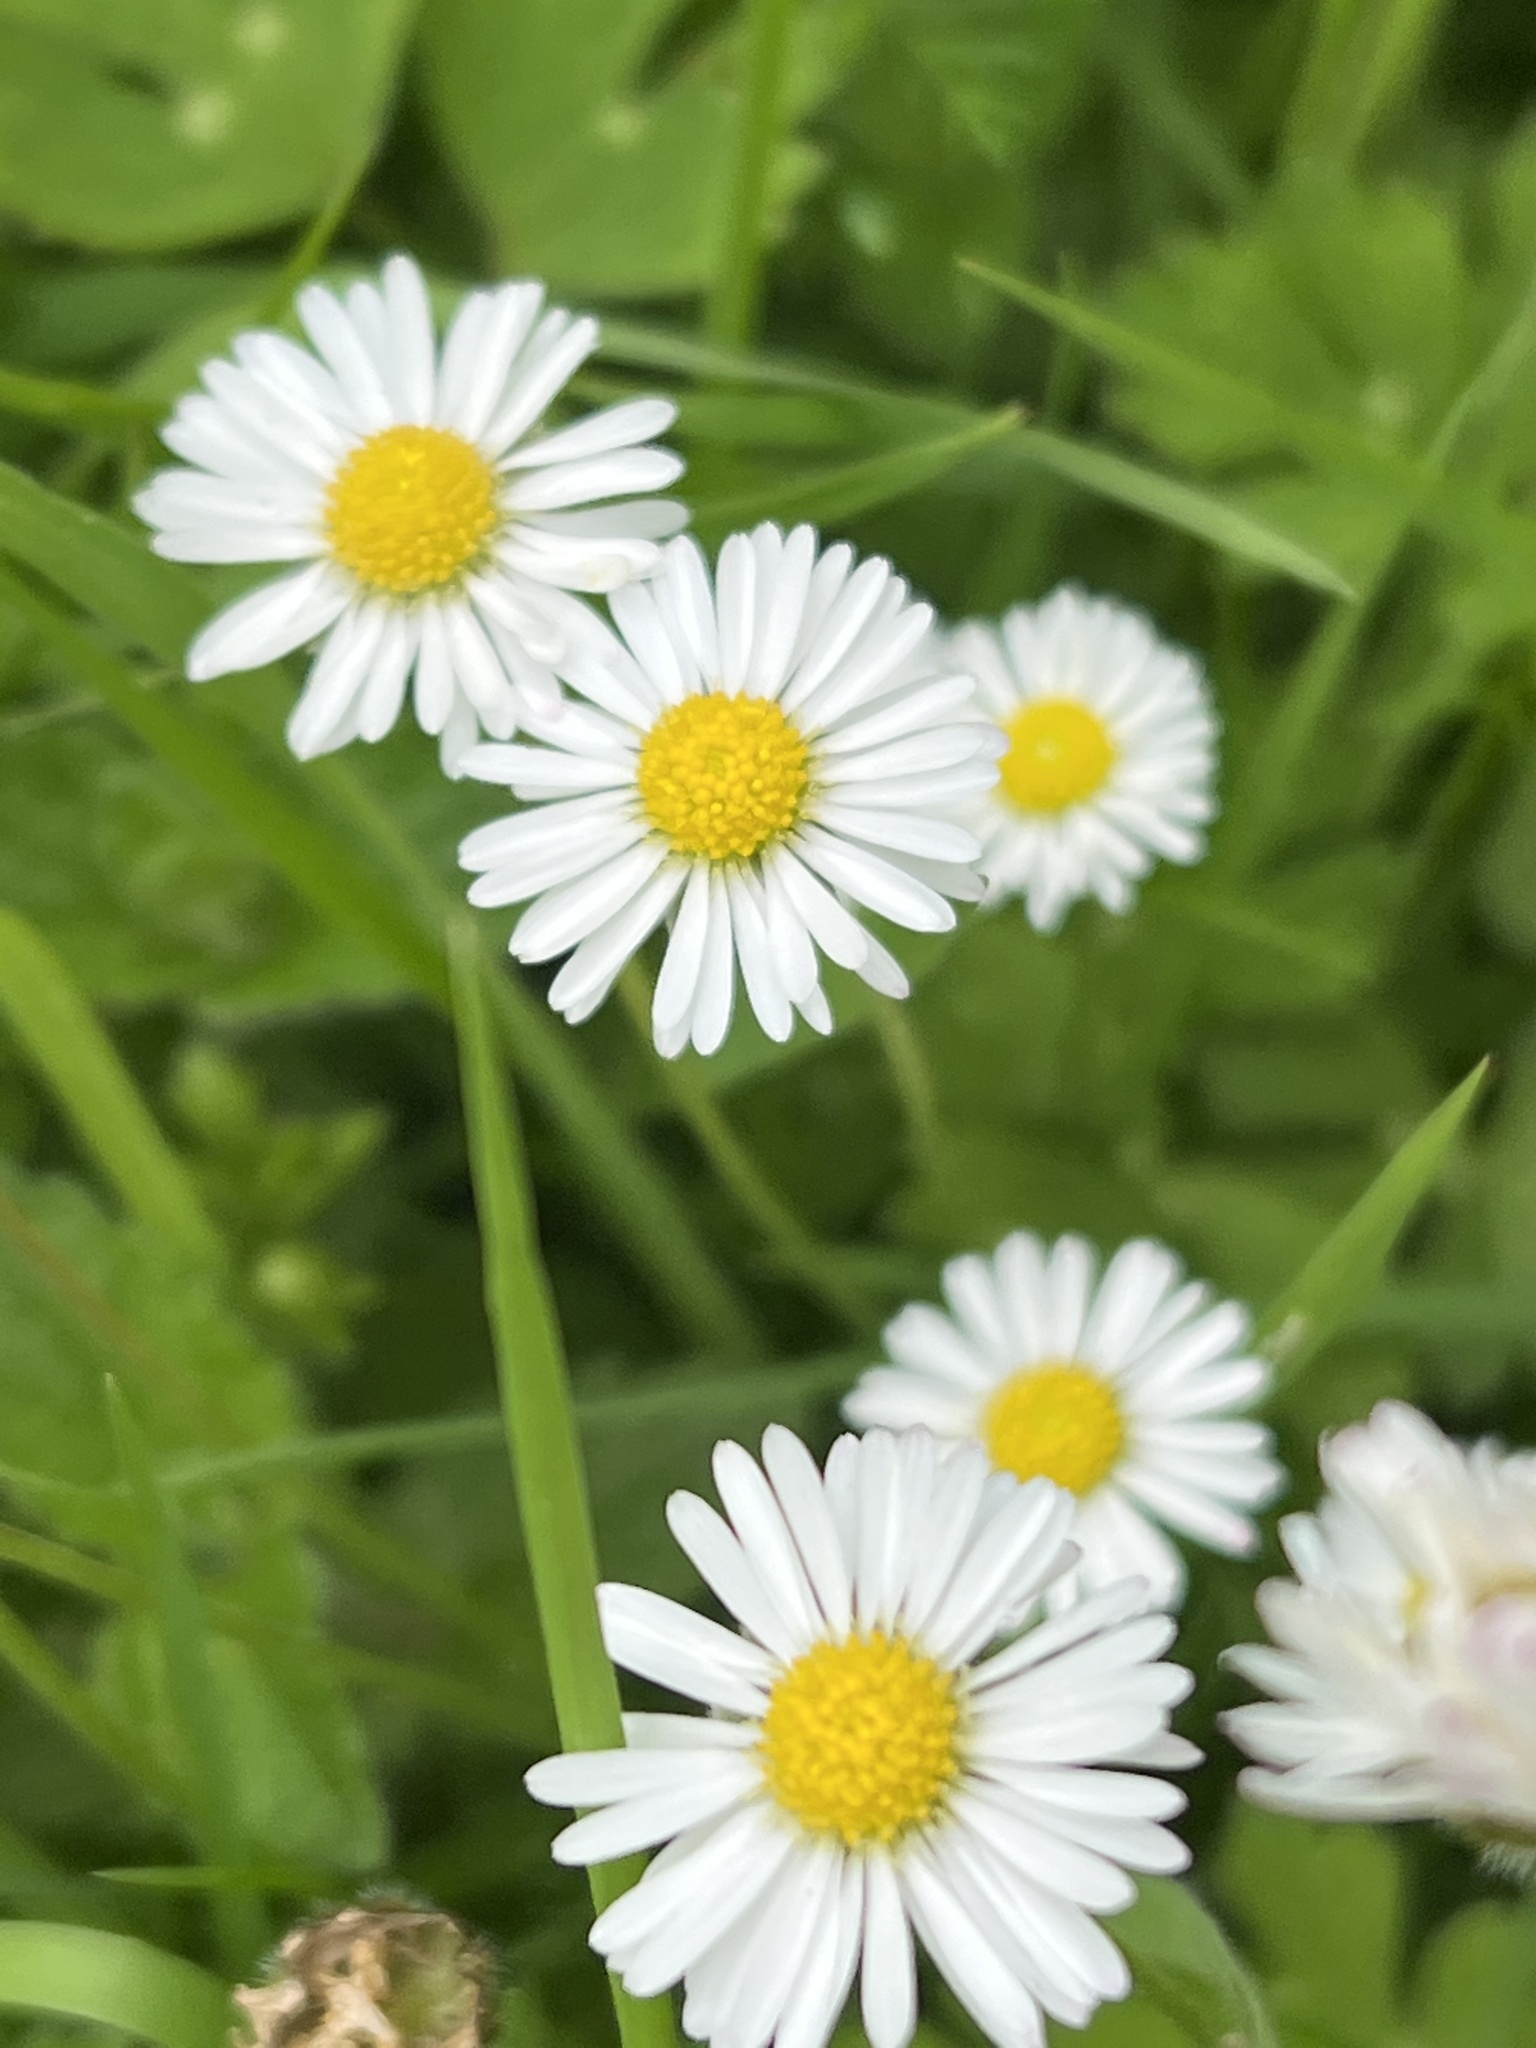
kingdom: Plantae
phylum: Tracheophyta
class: Magnoliopsida
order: Asterales
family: Asteraceae
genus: Bellis
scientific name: Bellis perennis
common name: Lawndaisy
